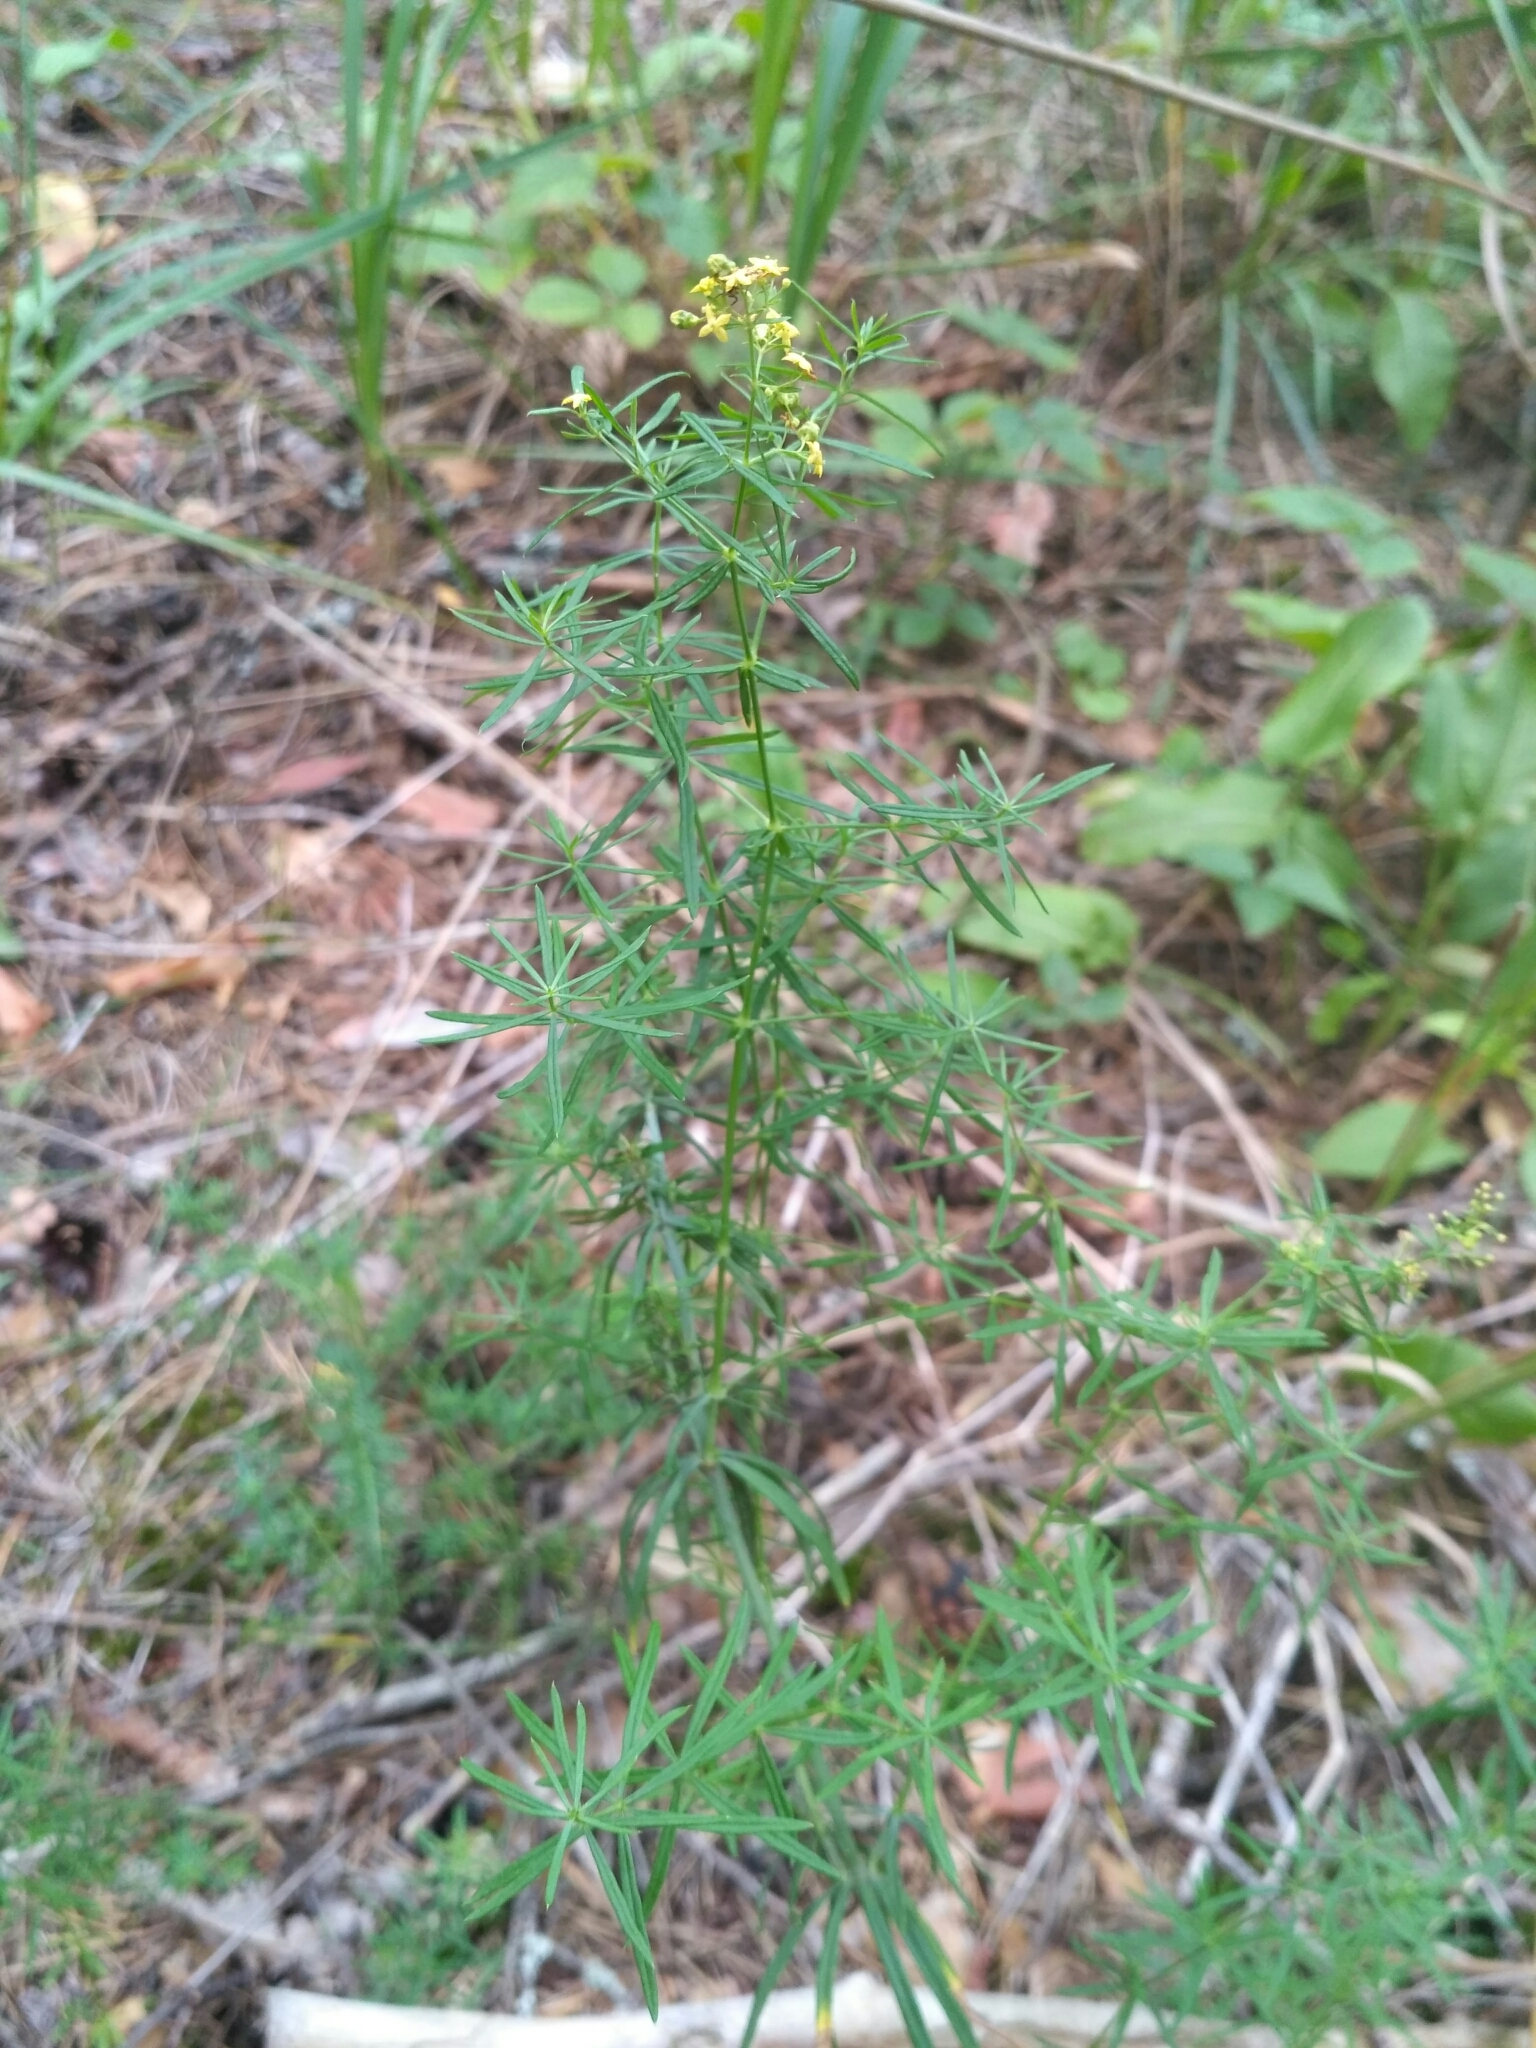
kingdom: Plantae
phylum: Tracheophyta
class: Magnoliopsida
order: Gentianales
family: Rubiaceae
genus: Galium
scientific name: Galium verum
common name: Lady's bedstraw
